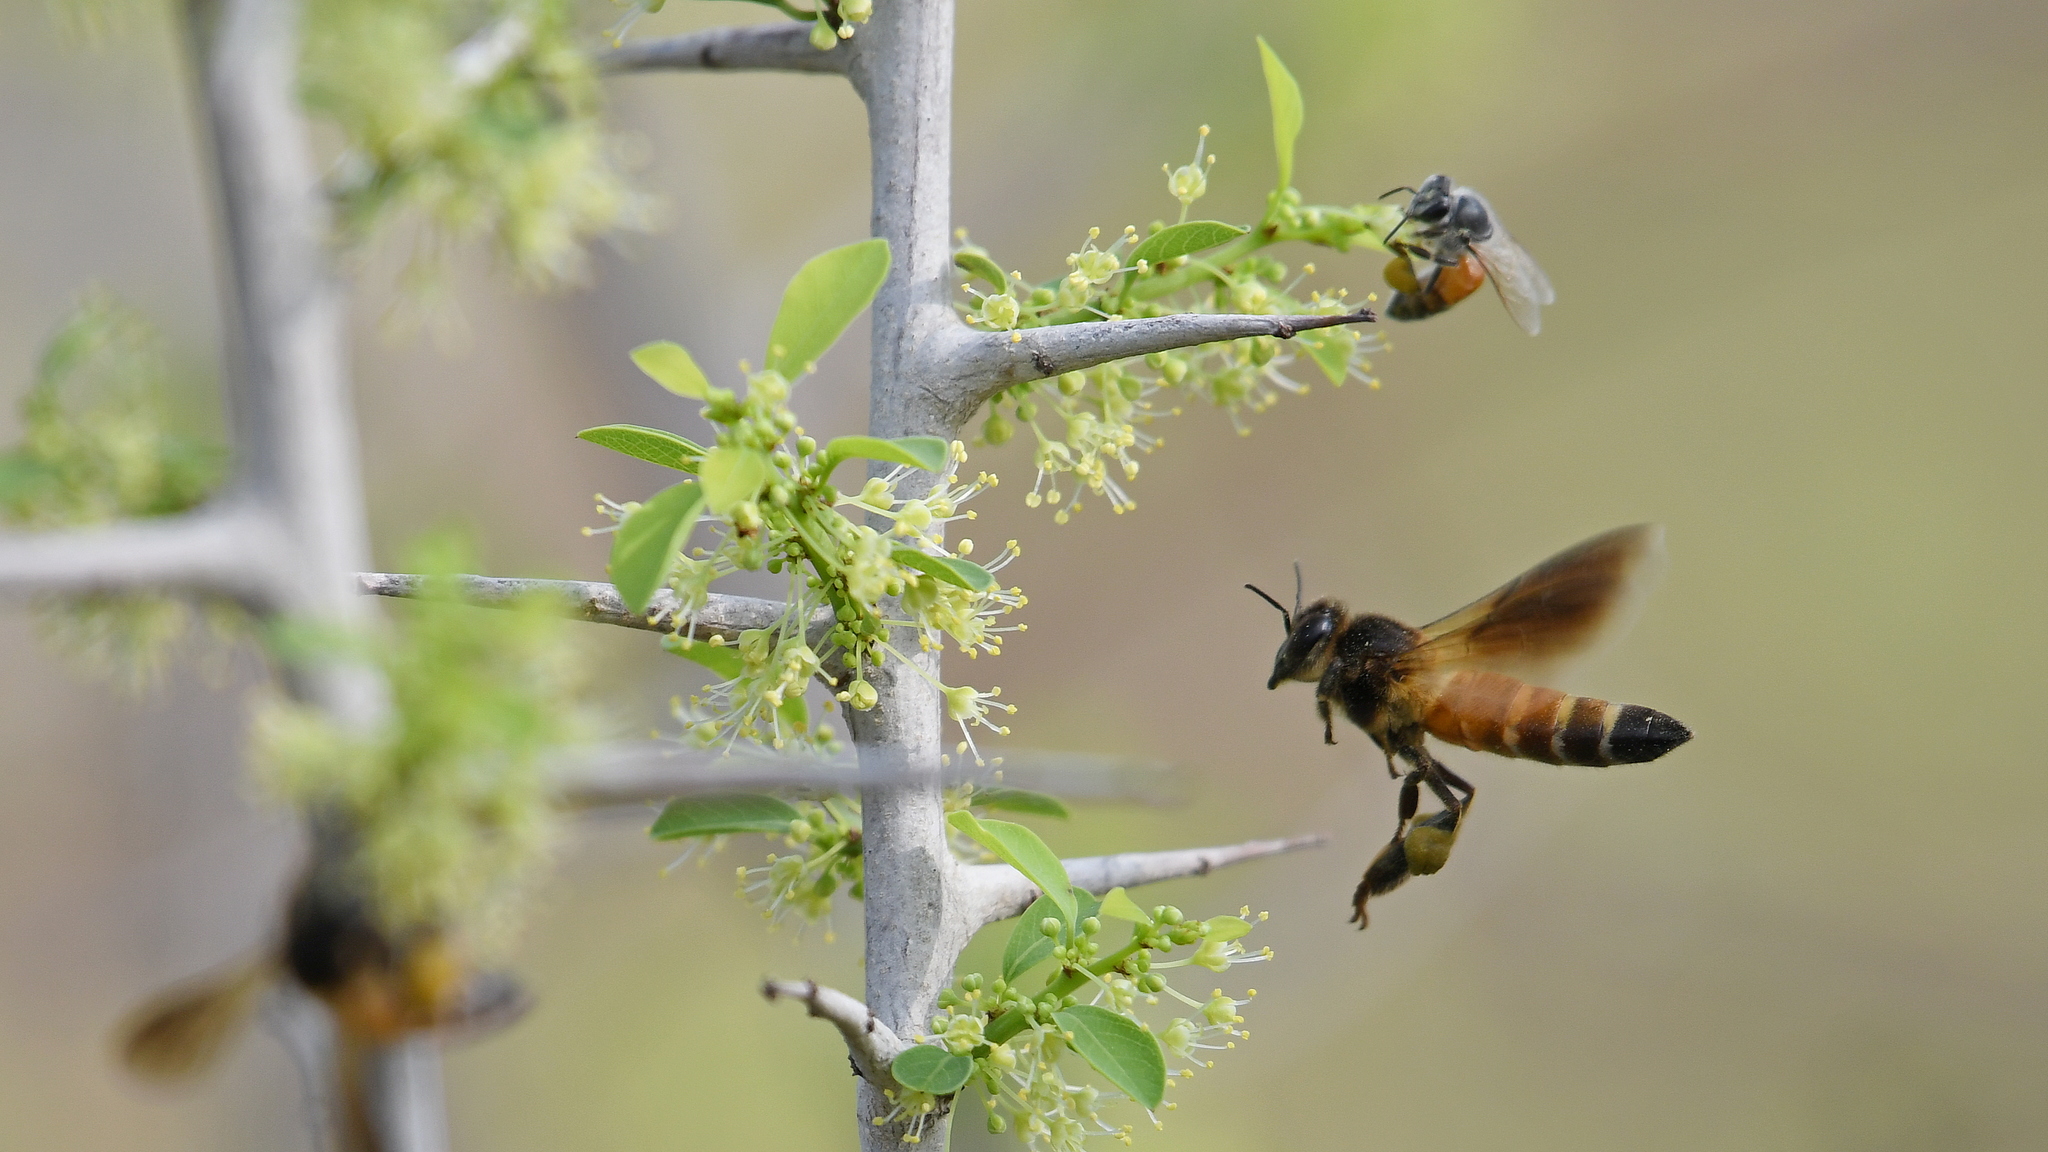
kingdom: Animalia
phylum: Arthropoda
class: Insecta
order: Hymenoptera
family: Apidae
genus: Apis
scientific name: Apis dorsata
